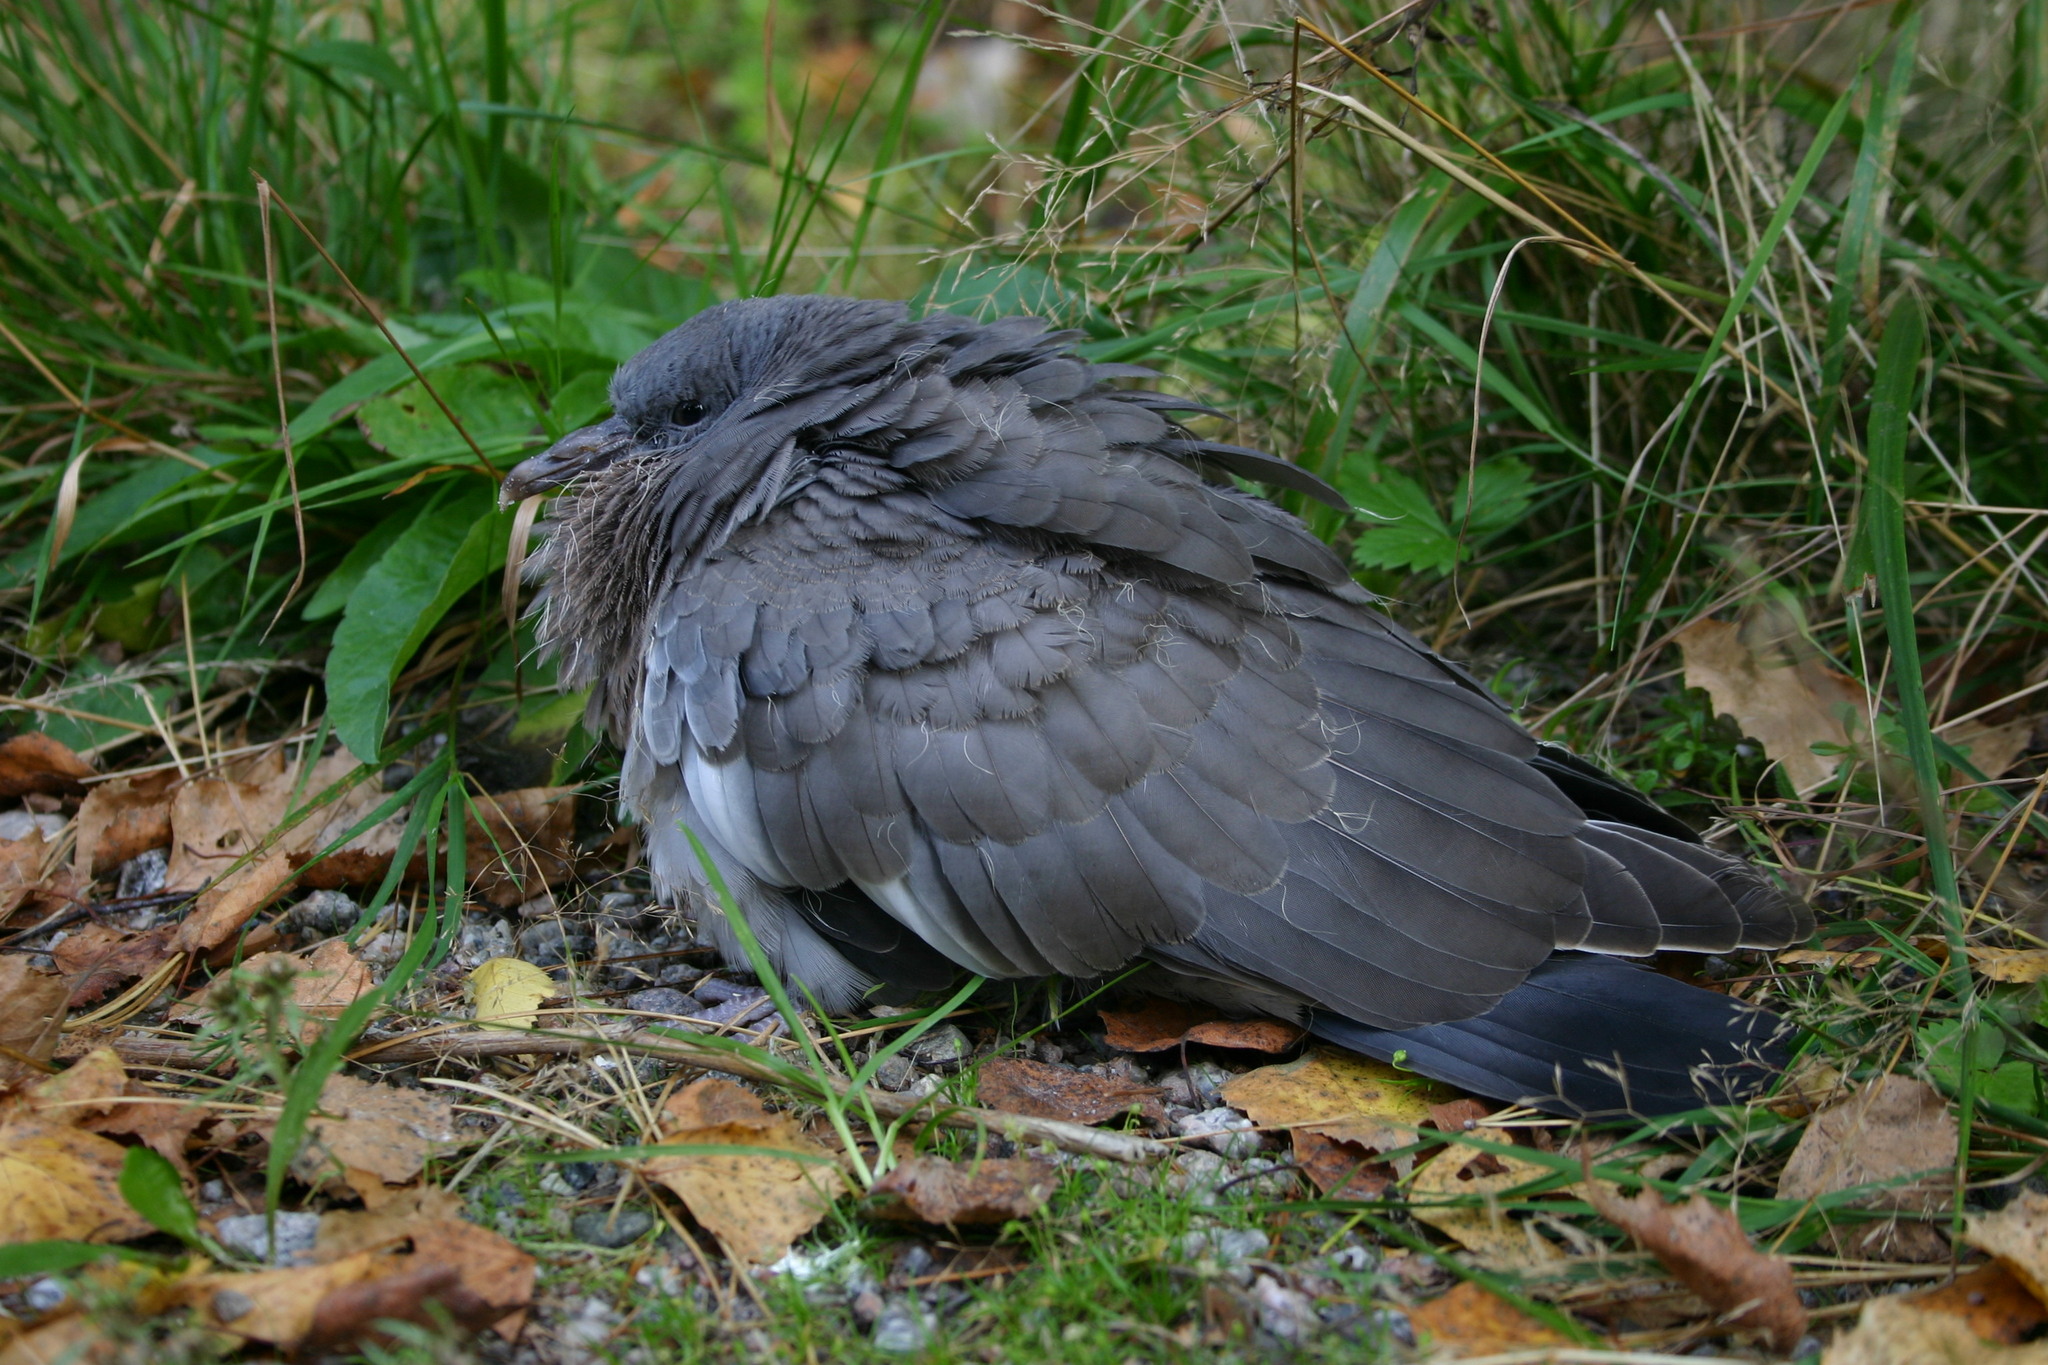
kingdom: Animalia
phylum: Chordata
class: Aves
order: Columbiformes
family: Columbidae
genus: Columba
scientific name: Columba palumbus
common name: Common wood pigeon
